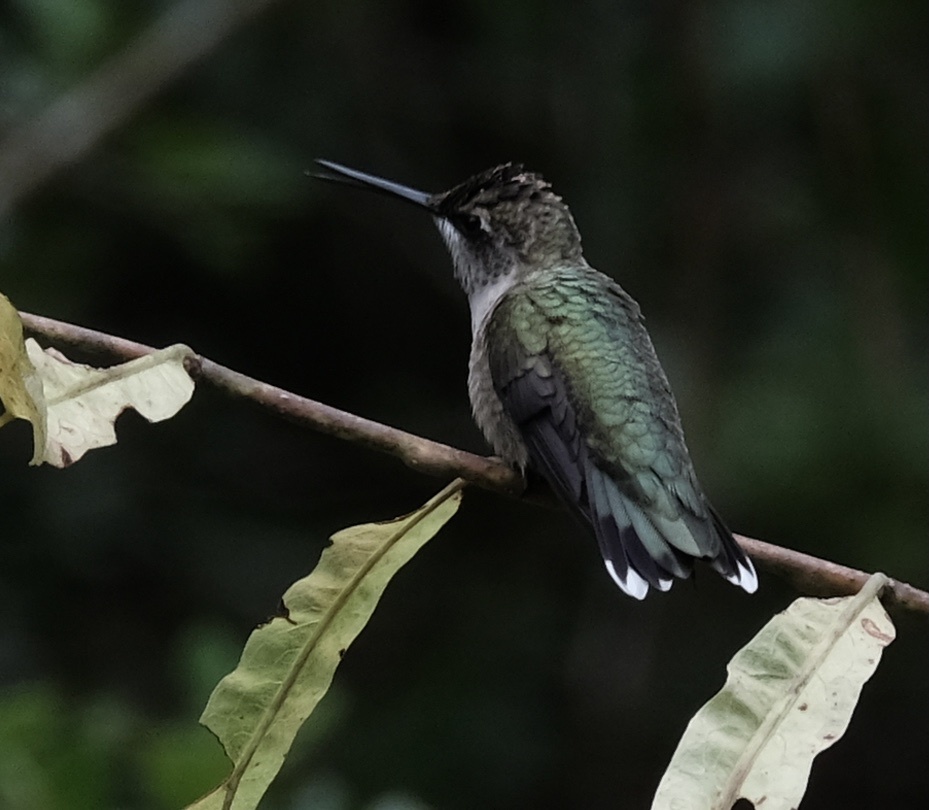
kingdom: Animalia
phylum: Chordata
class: Aves
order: Apodiformes
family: Trochilidae
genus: Archilochus
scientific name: Archilochus colubris
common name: Ruby-throated hummingbird
